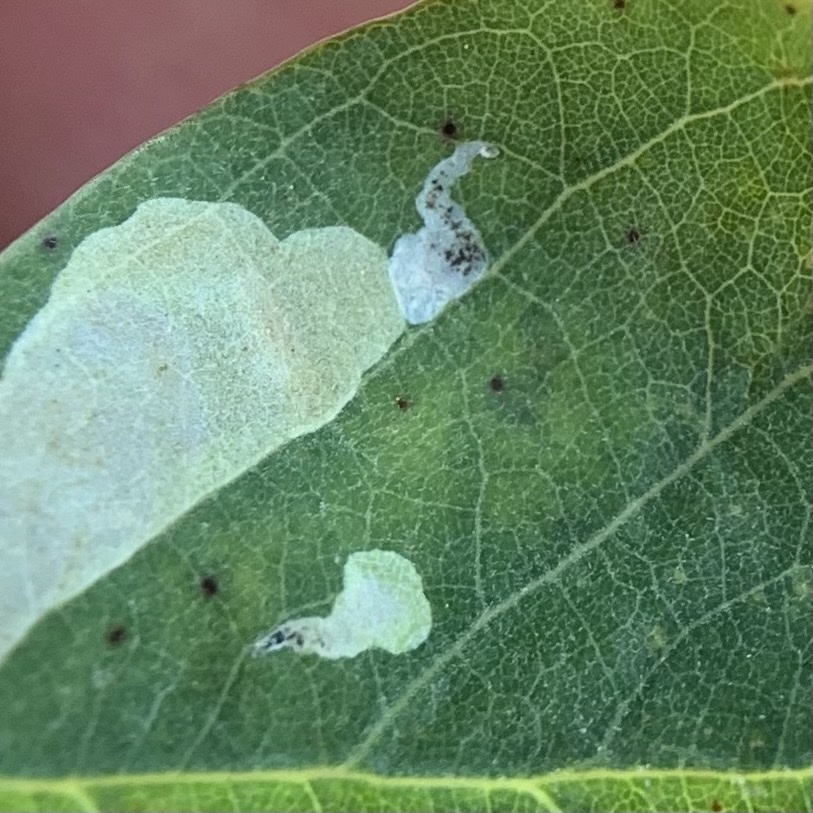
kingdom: Animalia
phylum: Arthropoda
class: Insecta
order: Lepidoptera
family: Gracillariidae
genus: Chrysaster
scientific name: Chrysaster ostensackenella
